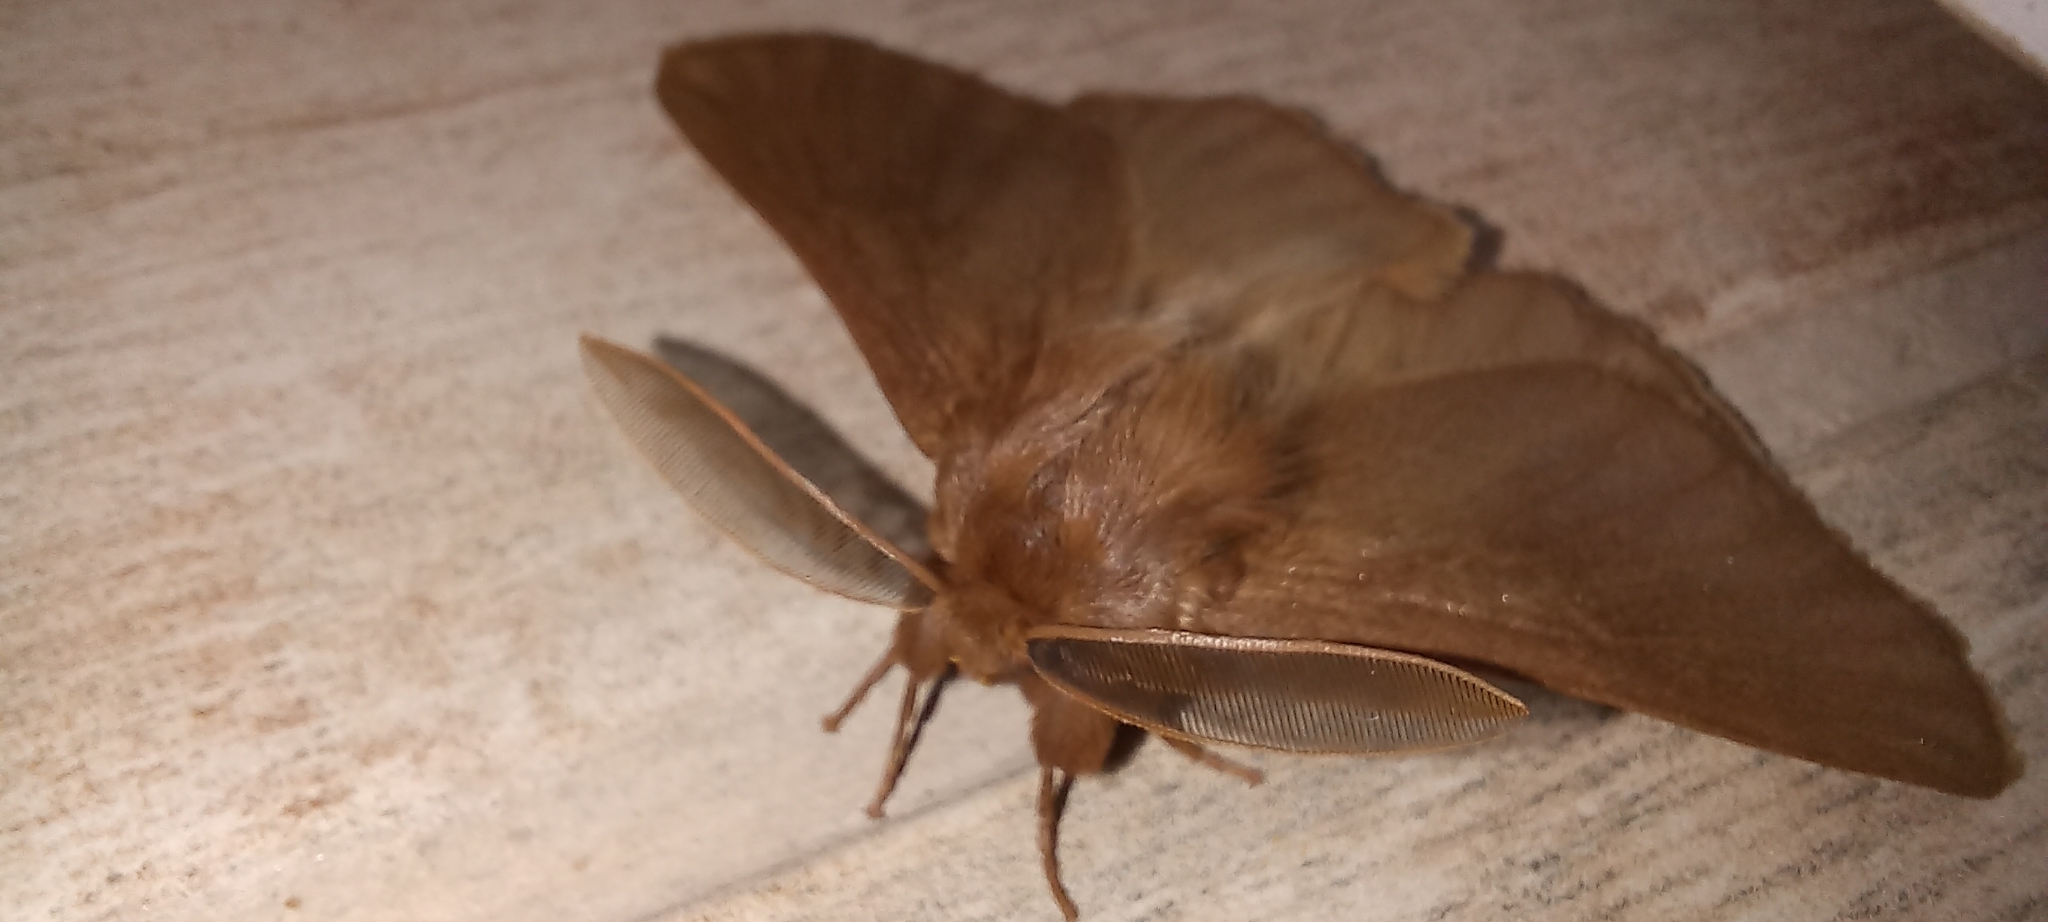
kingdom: Animalia
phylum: Arthropoda
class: Insecta
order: Lepidoptera
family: Eupterotidae
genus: Phyllalia
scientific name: Phyllalia patens
